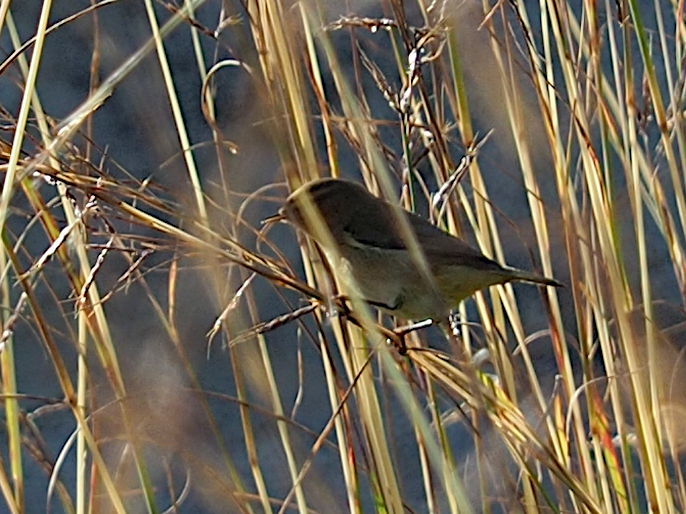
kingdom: Animalia
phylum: Chordata
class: Aves
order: Passeriformes
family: Phylloscopidae
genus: Phylloscopus
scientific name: Phylloscopus collybita
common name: Common chiffchaff
